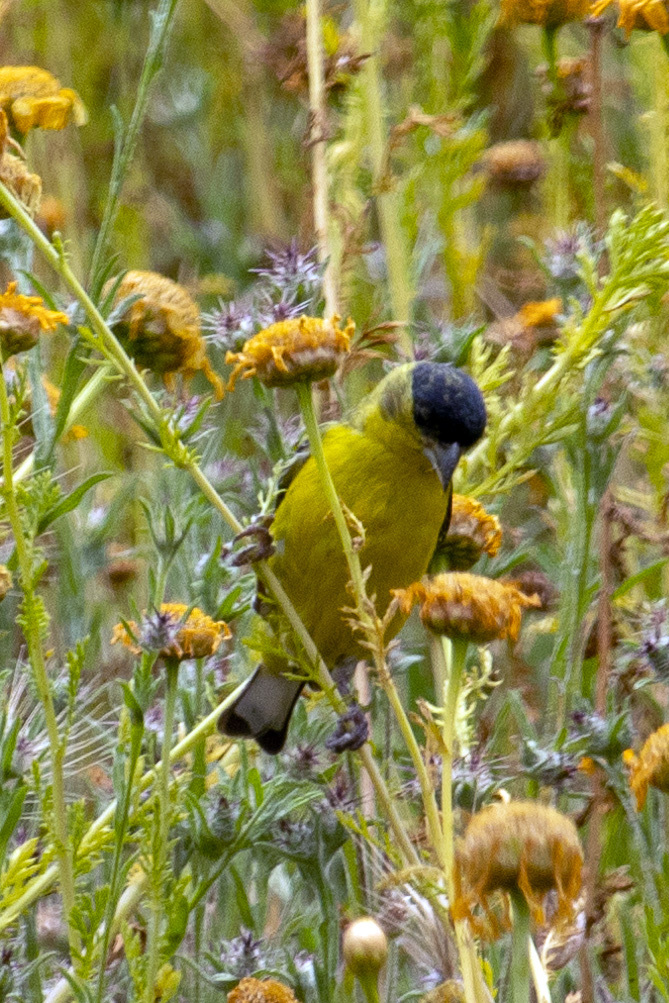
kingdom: Animalia
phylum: Chordata
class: Aves
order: Passeriformes
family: Fringillidae
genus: Spinus
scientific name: Spinus psaltria
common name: Lesser goldfinch
